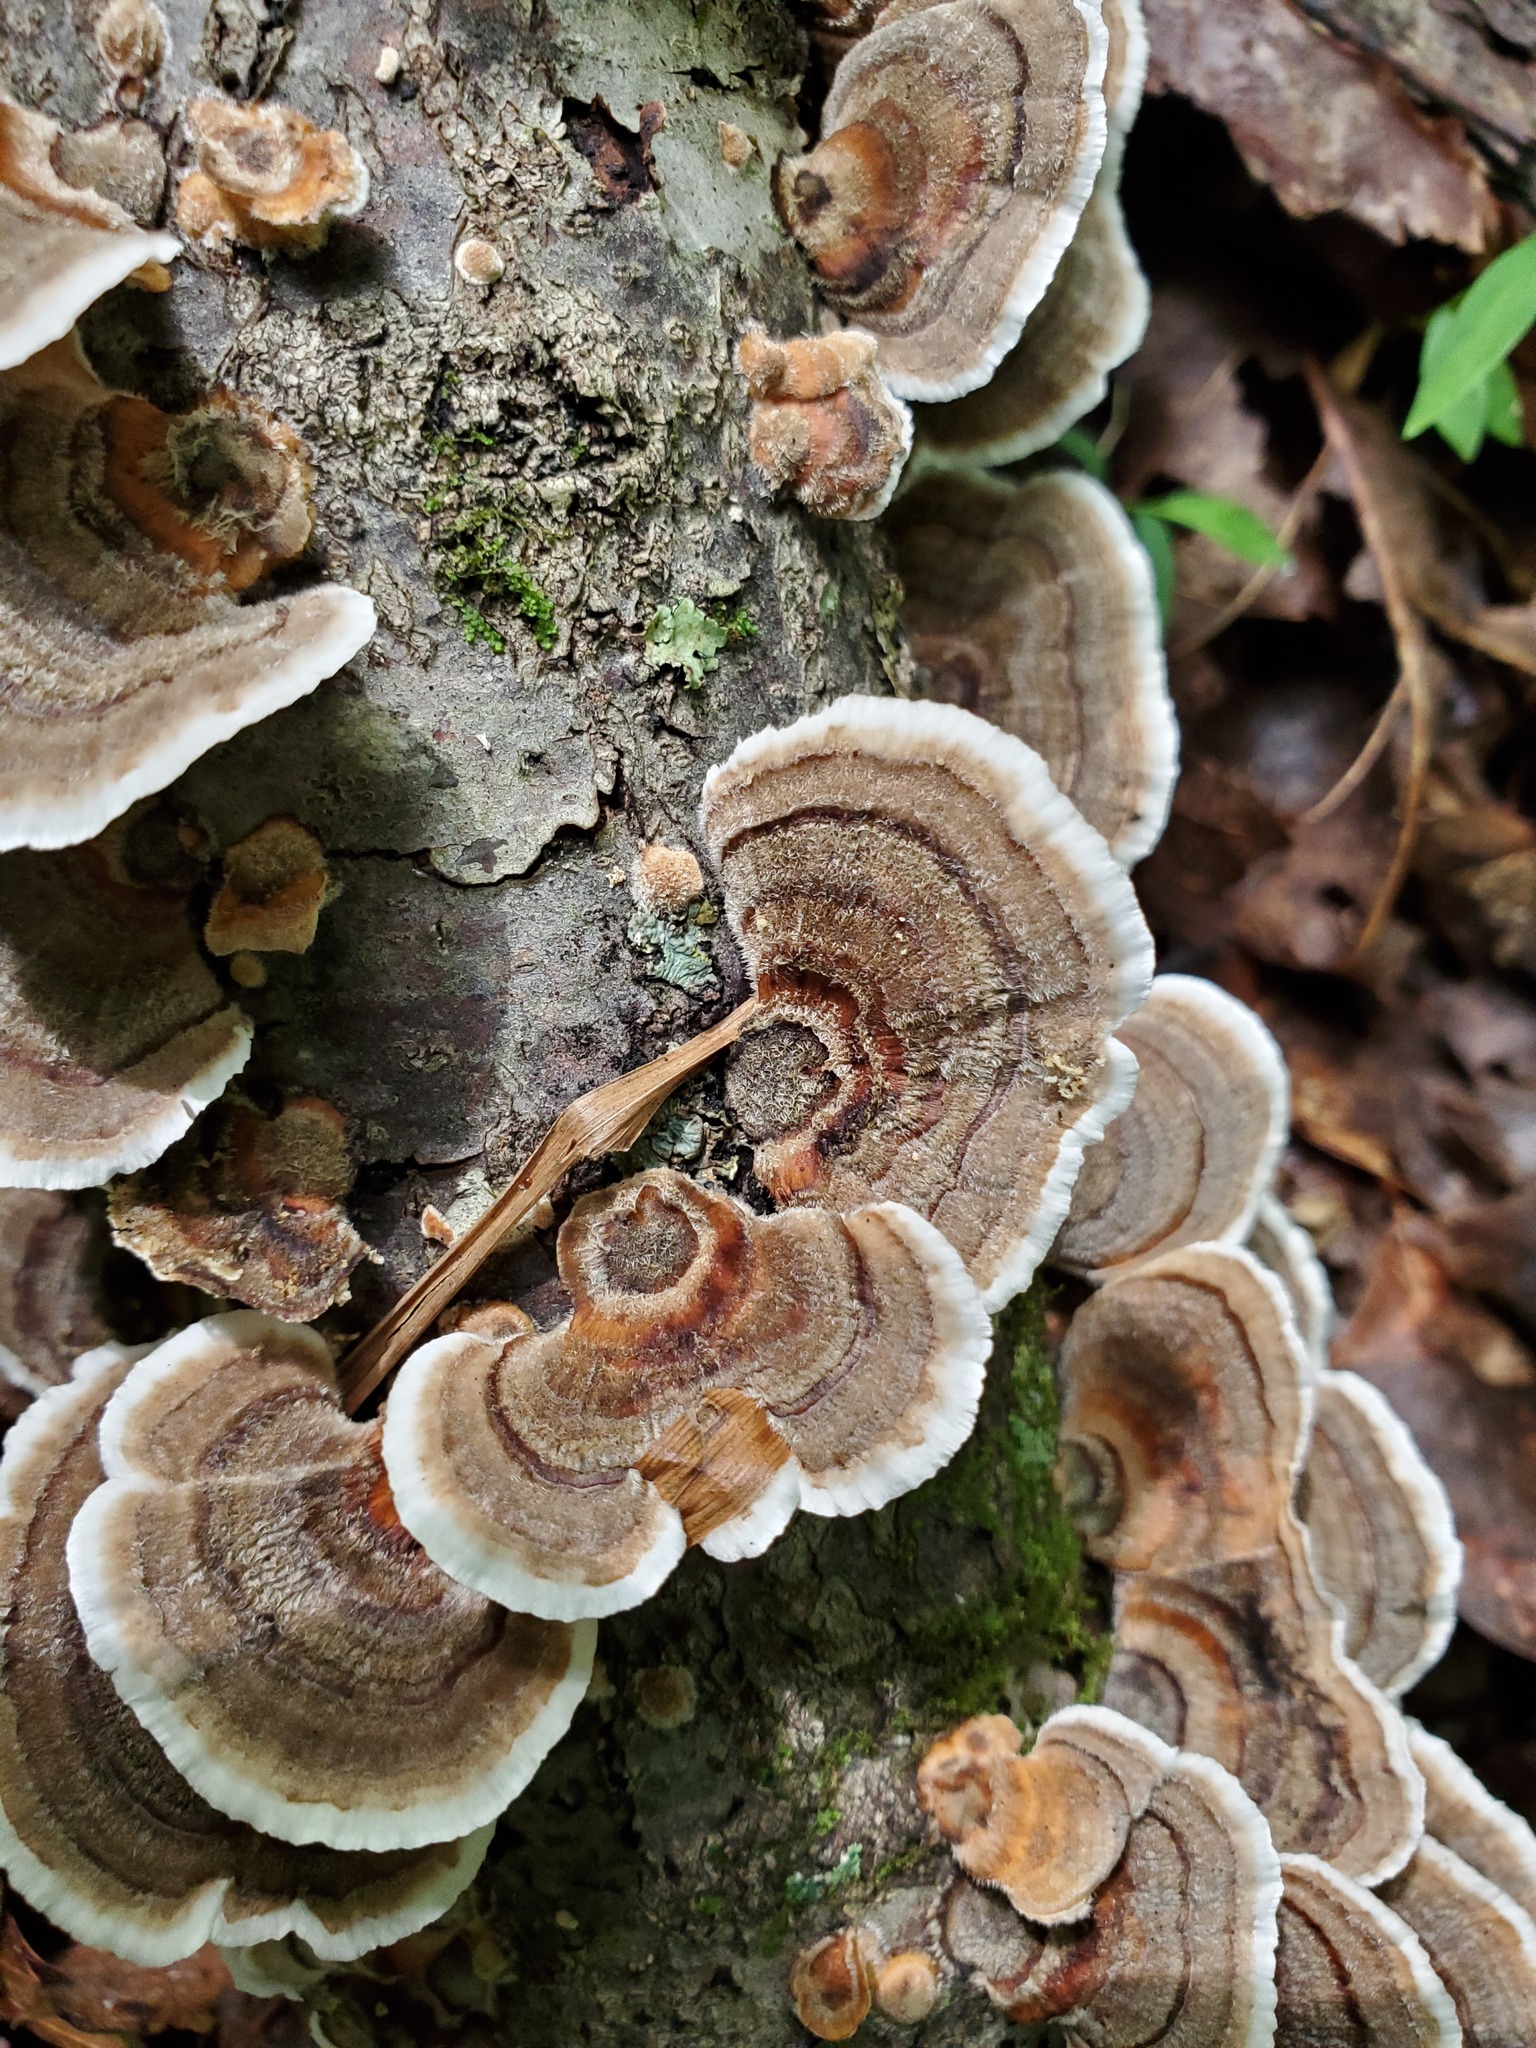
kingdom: Fungi
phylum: Basidiomycota
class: Agaricomycetes
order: Polyporales
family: Polyporaceae
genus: Trametes
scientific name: Trametes versicolor
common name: Turkeytail
